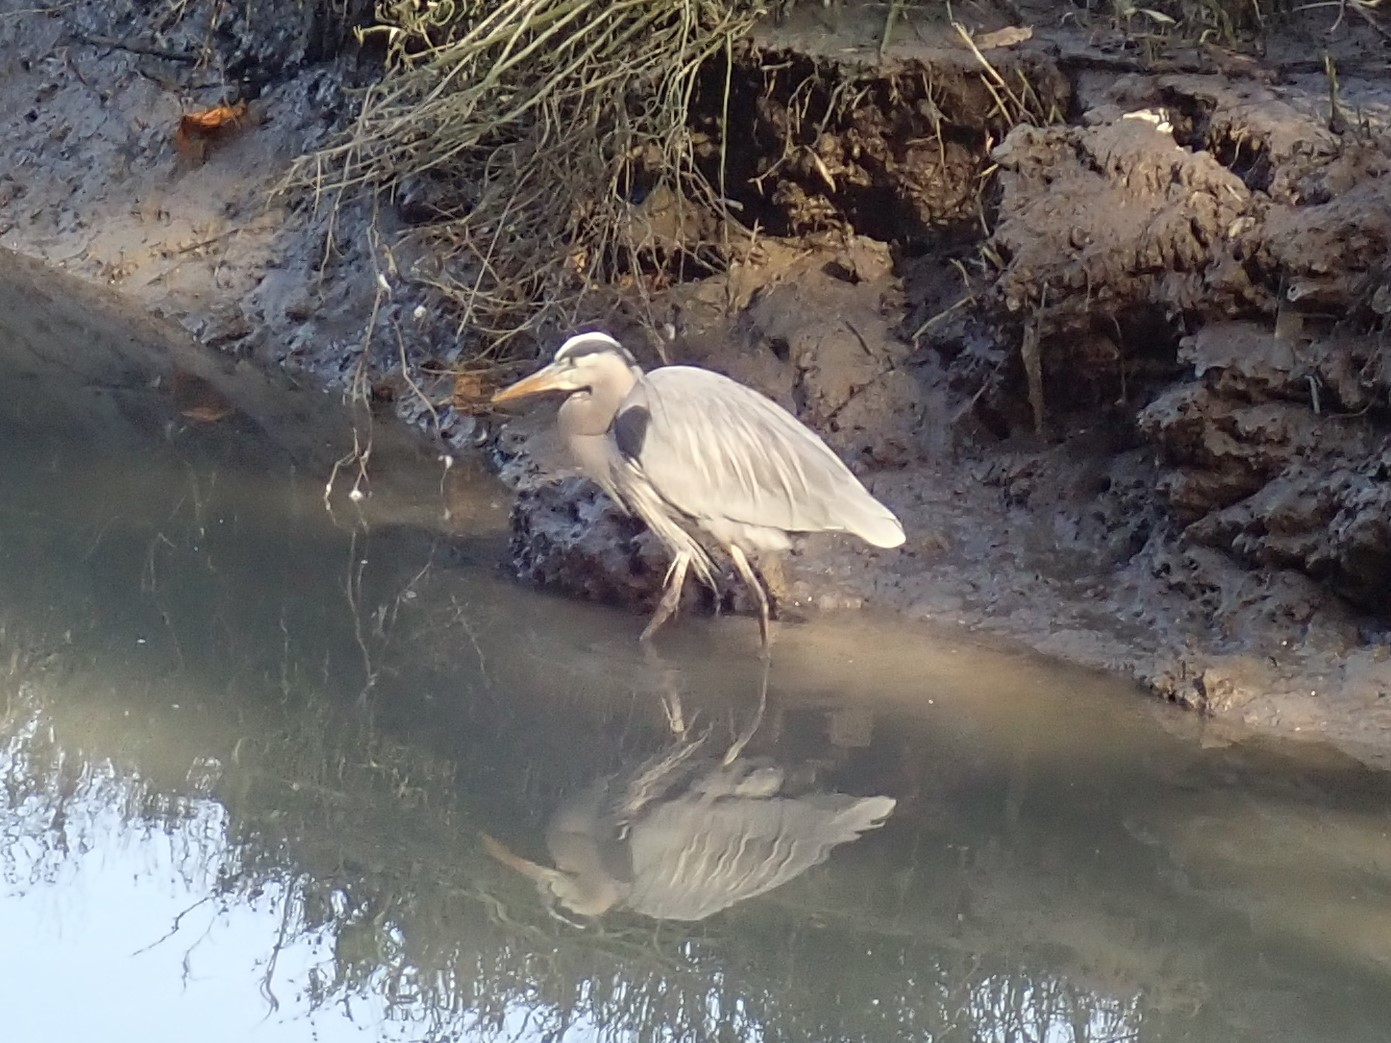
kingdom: Animalia
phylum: Chordata
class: Aves
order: Pelecaniformes
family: Ardeidae
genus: Ardea
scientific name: Ardea herodias
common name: Great blue heron
